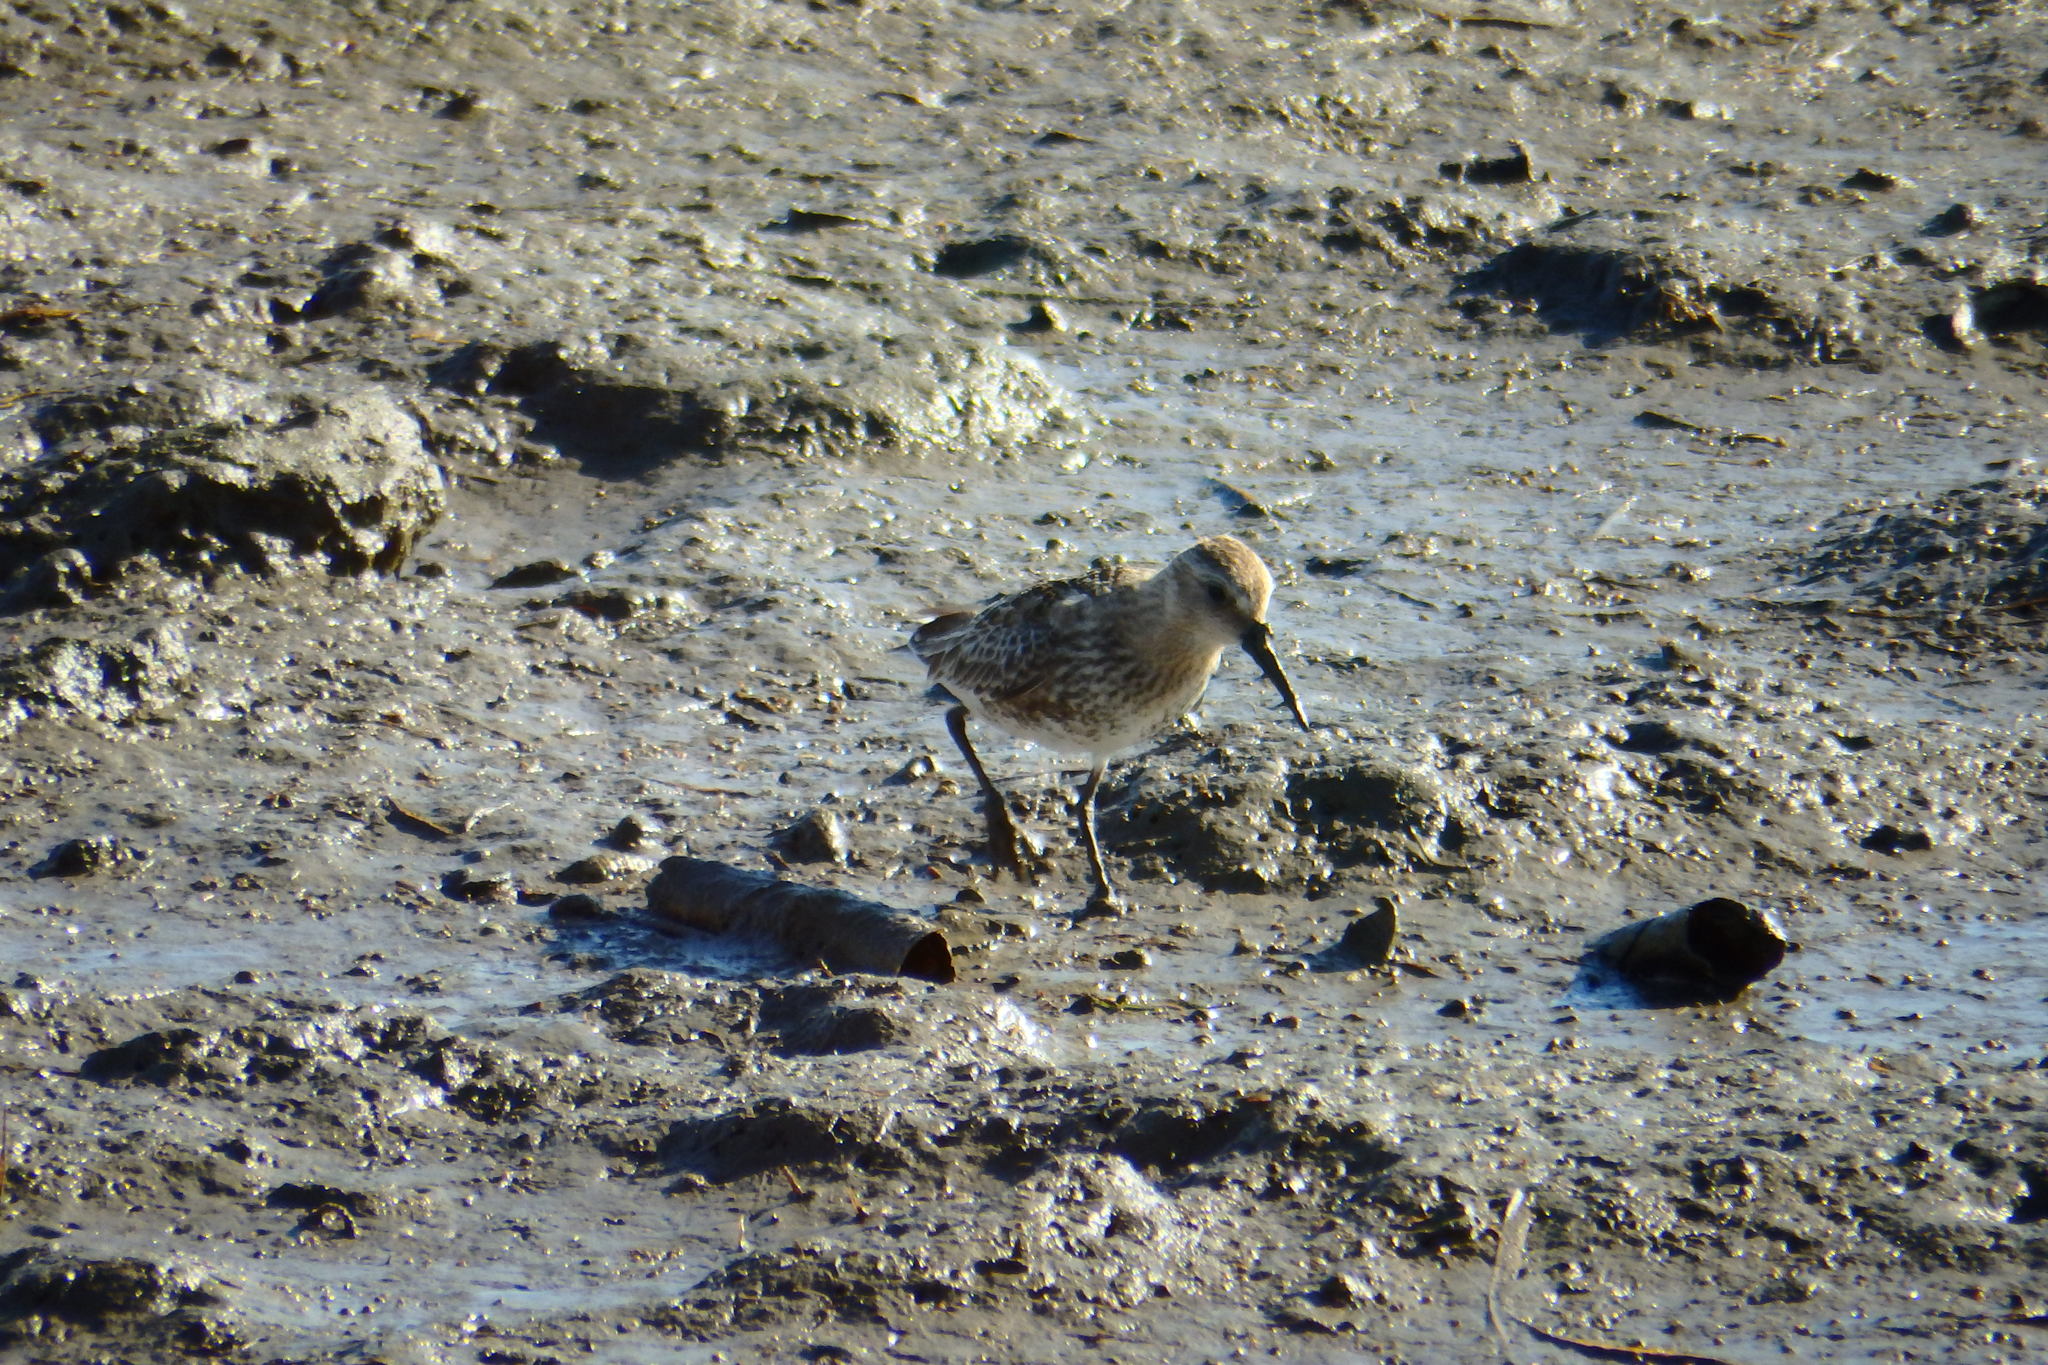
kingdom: Animalia
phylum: Chordata
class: Aves
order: Charadriiformes
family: Scolopacidae
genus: Calidris
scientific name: Calidris alpina
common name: Dunlin
